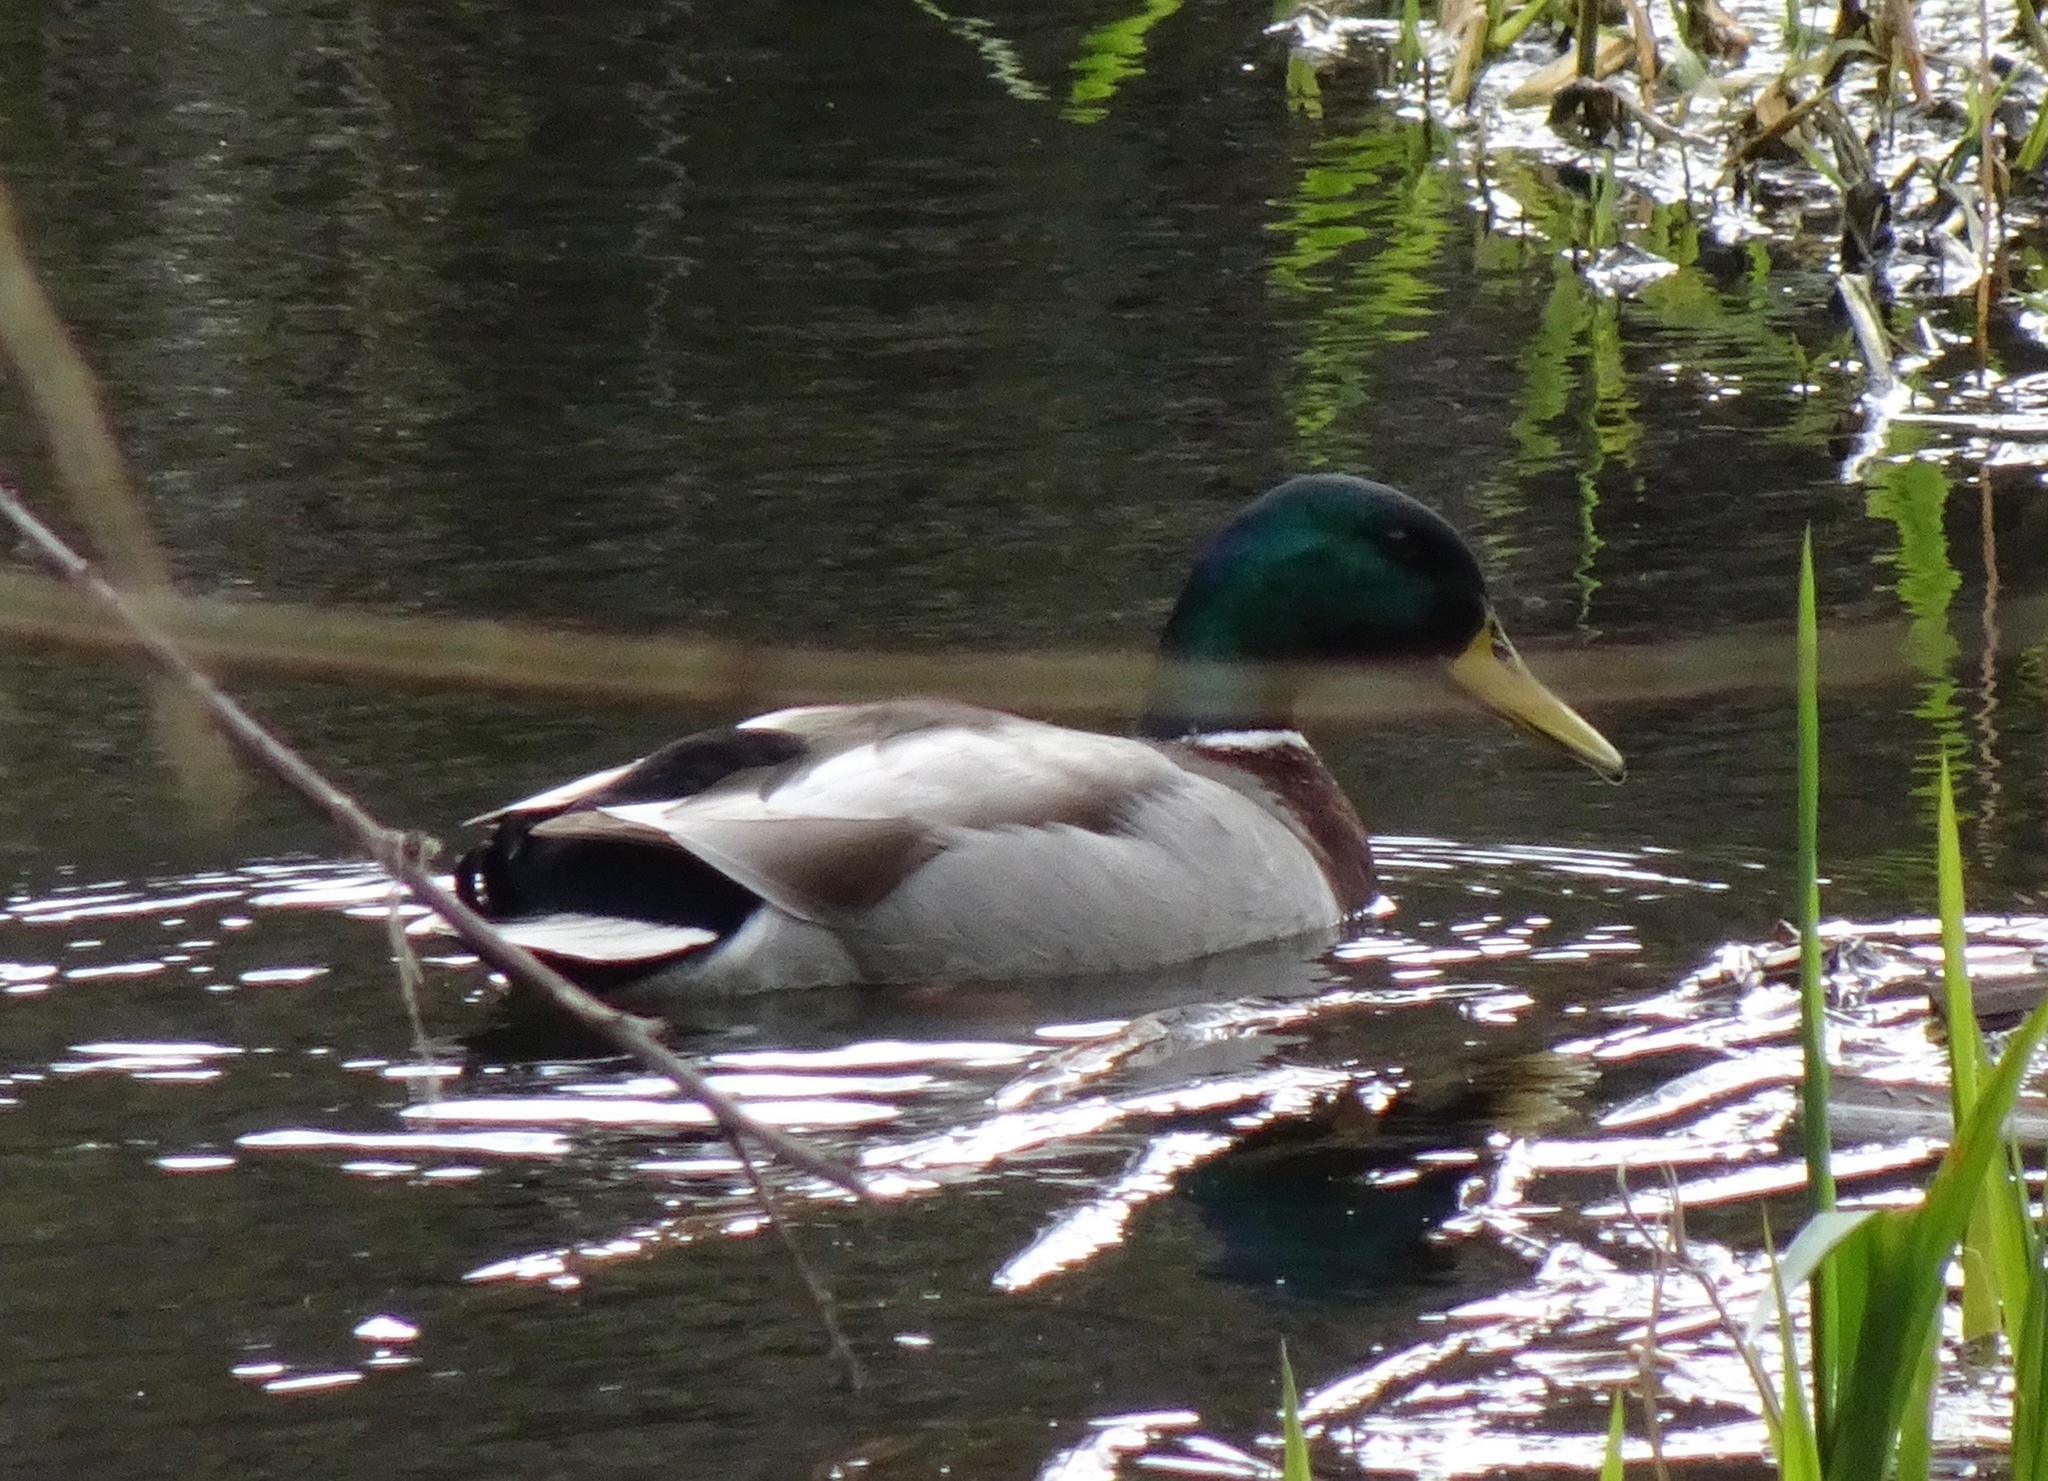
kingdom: Animalia
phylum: Chordata
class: Aves
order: Anseriformes
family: Anatidae
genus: Anas
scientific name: Anas platyrhynchos
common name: Mallard
